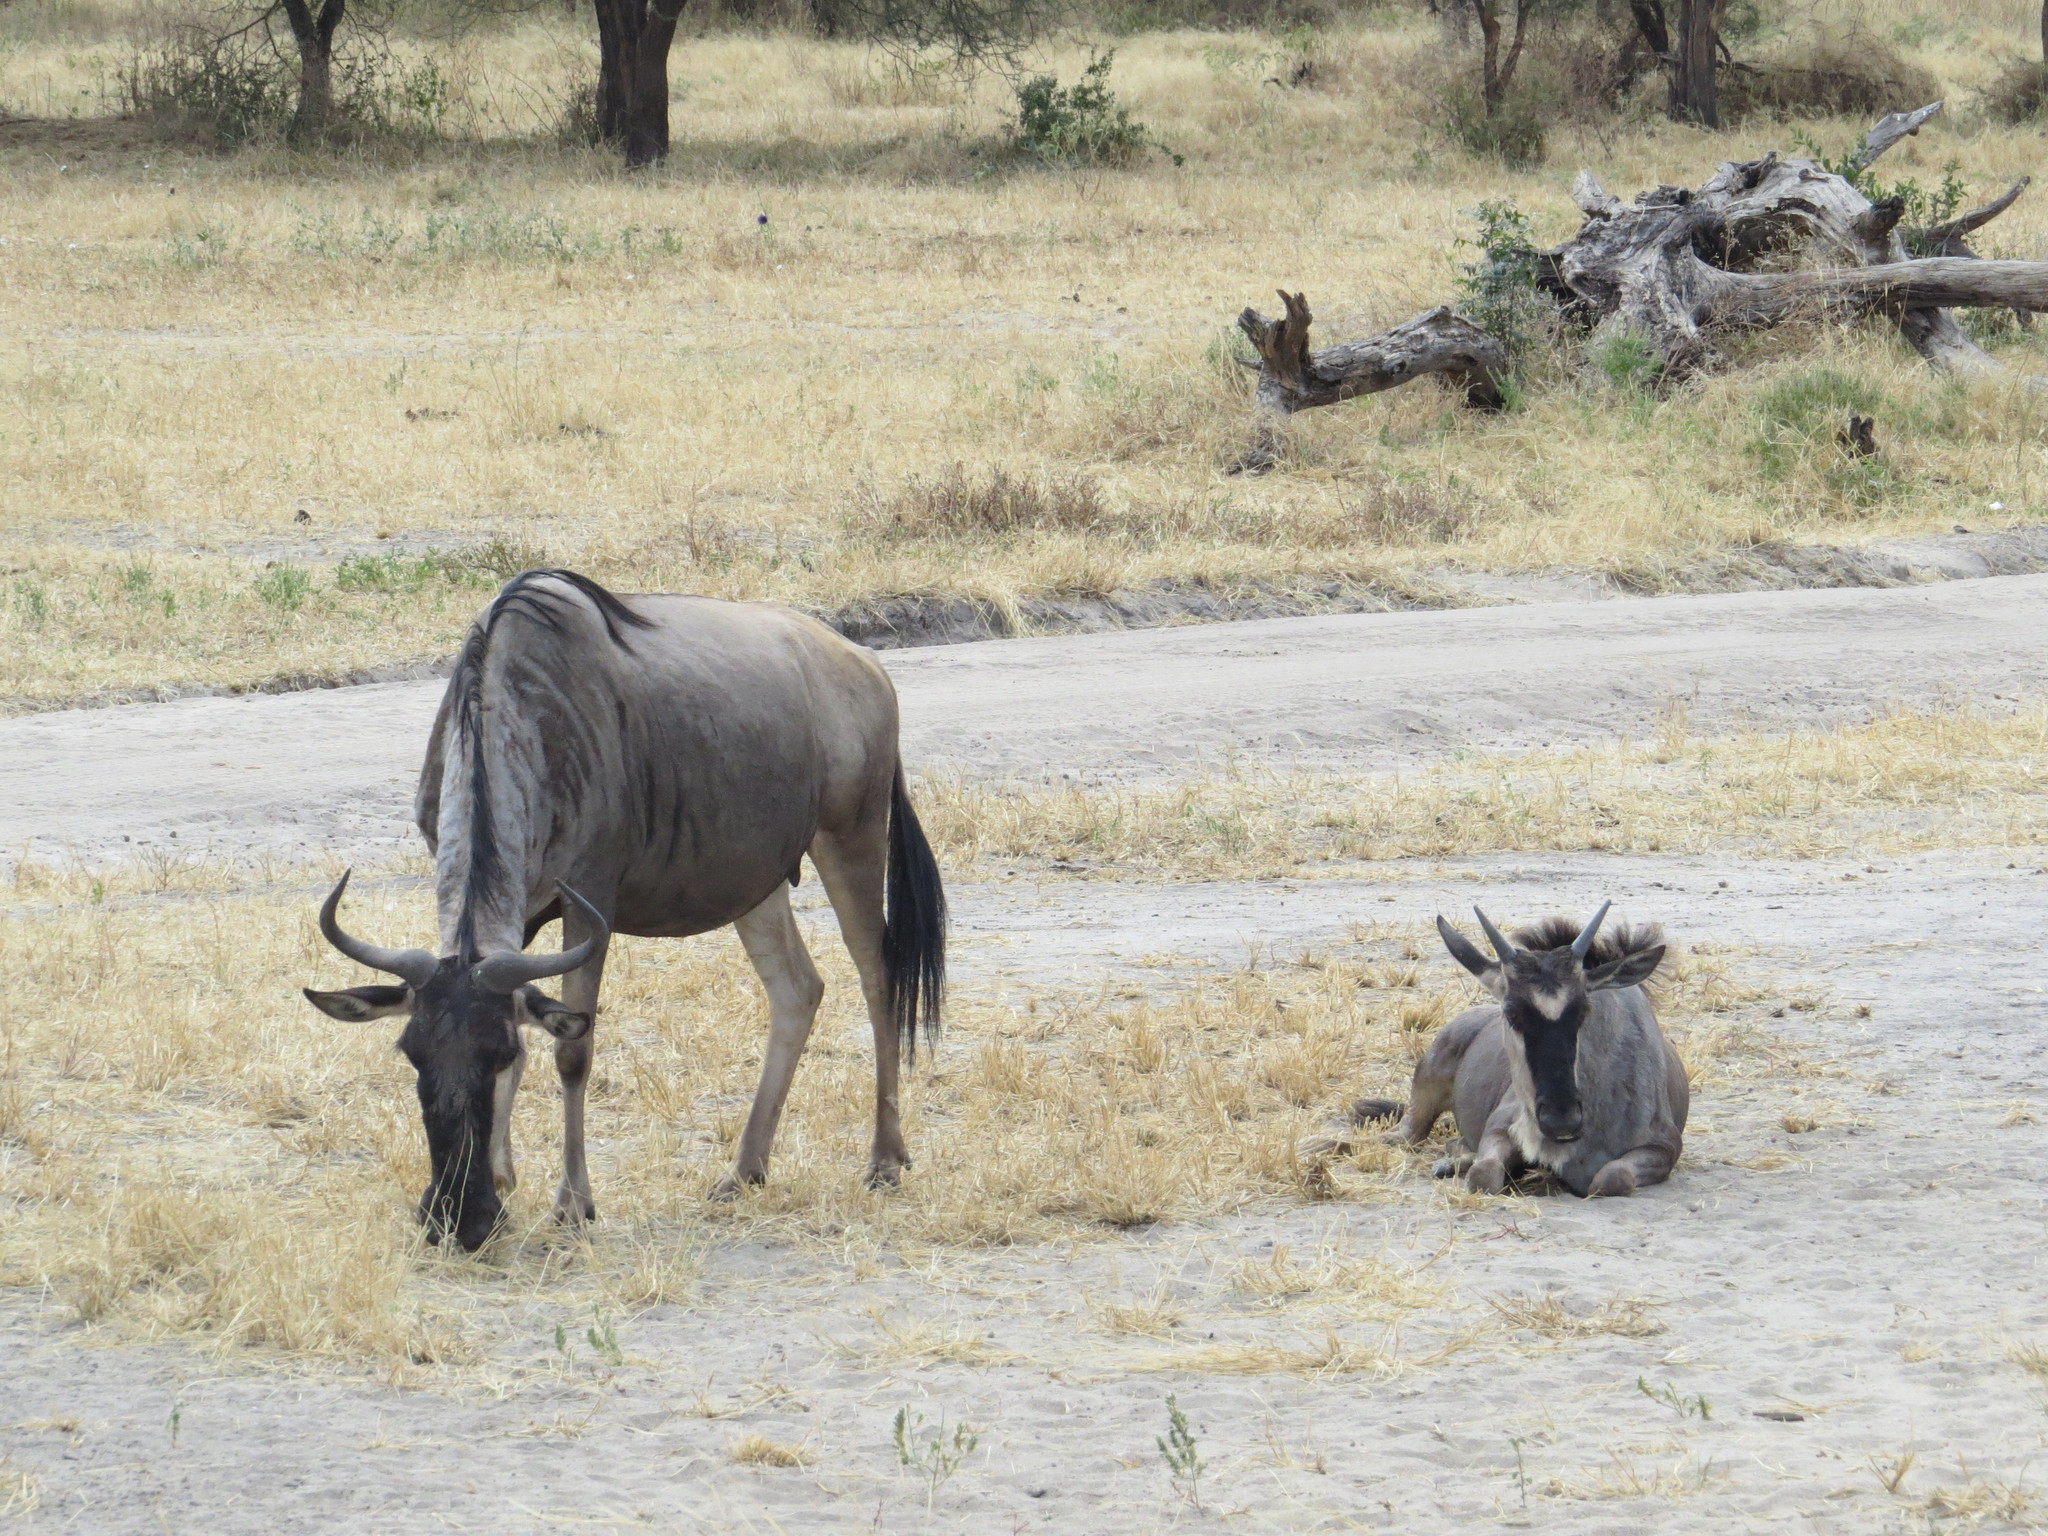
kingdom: Animalia
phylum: Chordata
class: Mammalia
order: Artiodactyla
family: Bovidae
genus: Connochaetes
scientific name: Connochaetes taurinus
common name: Blue wildebeest
